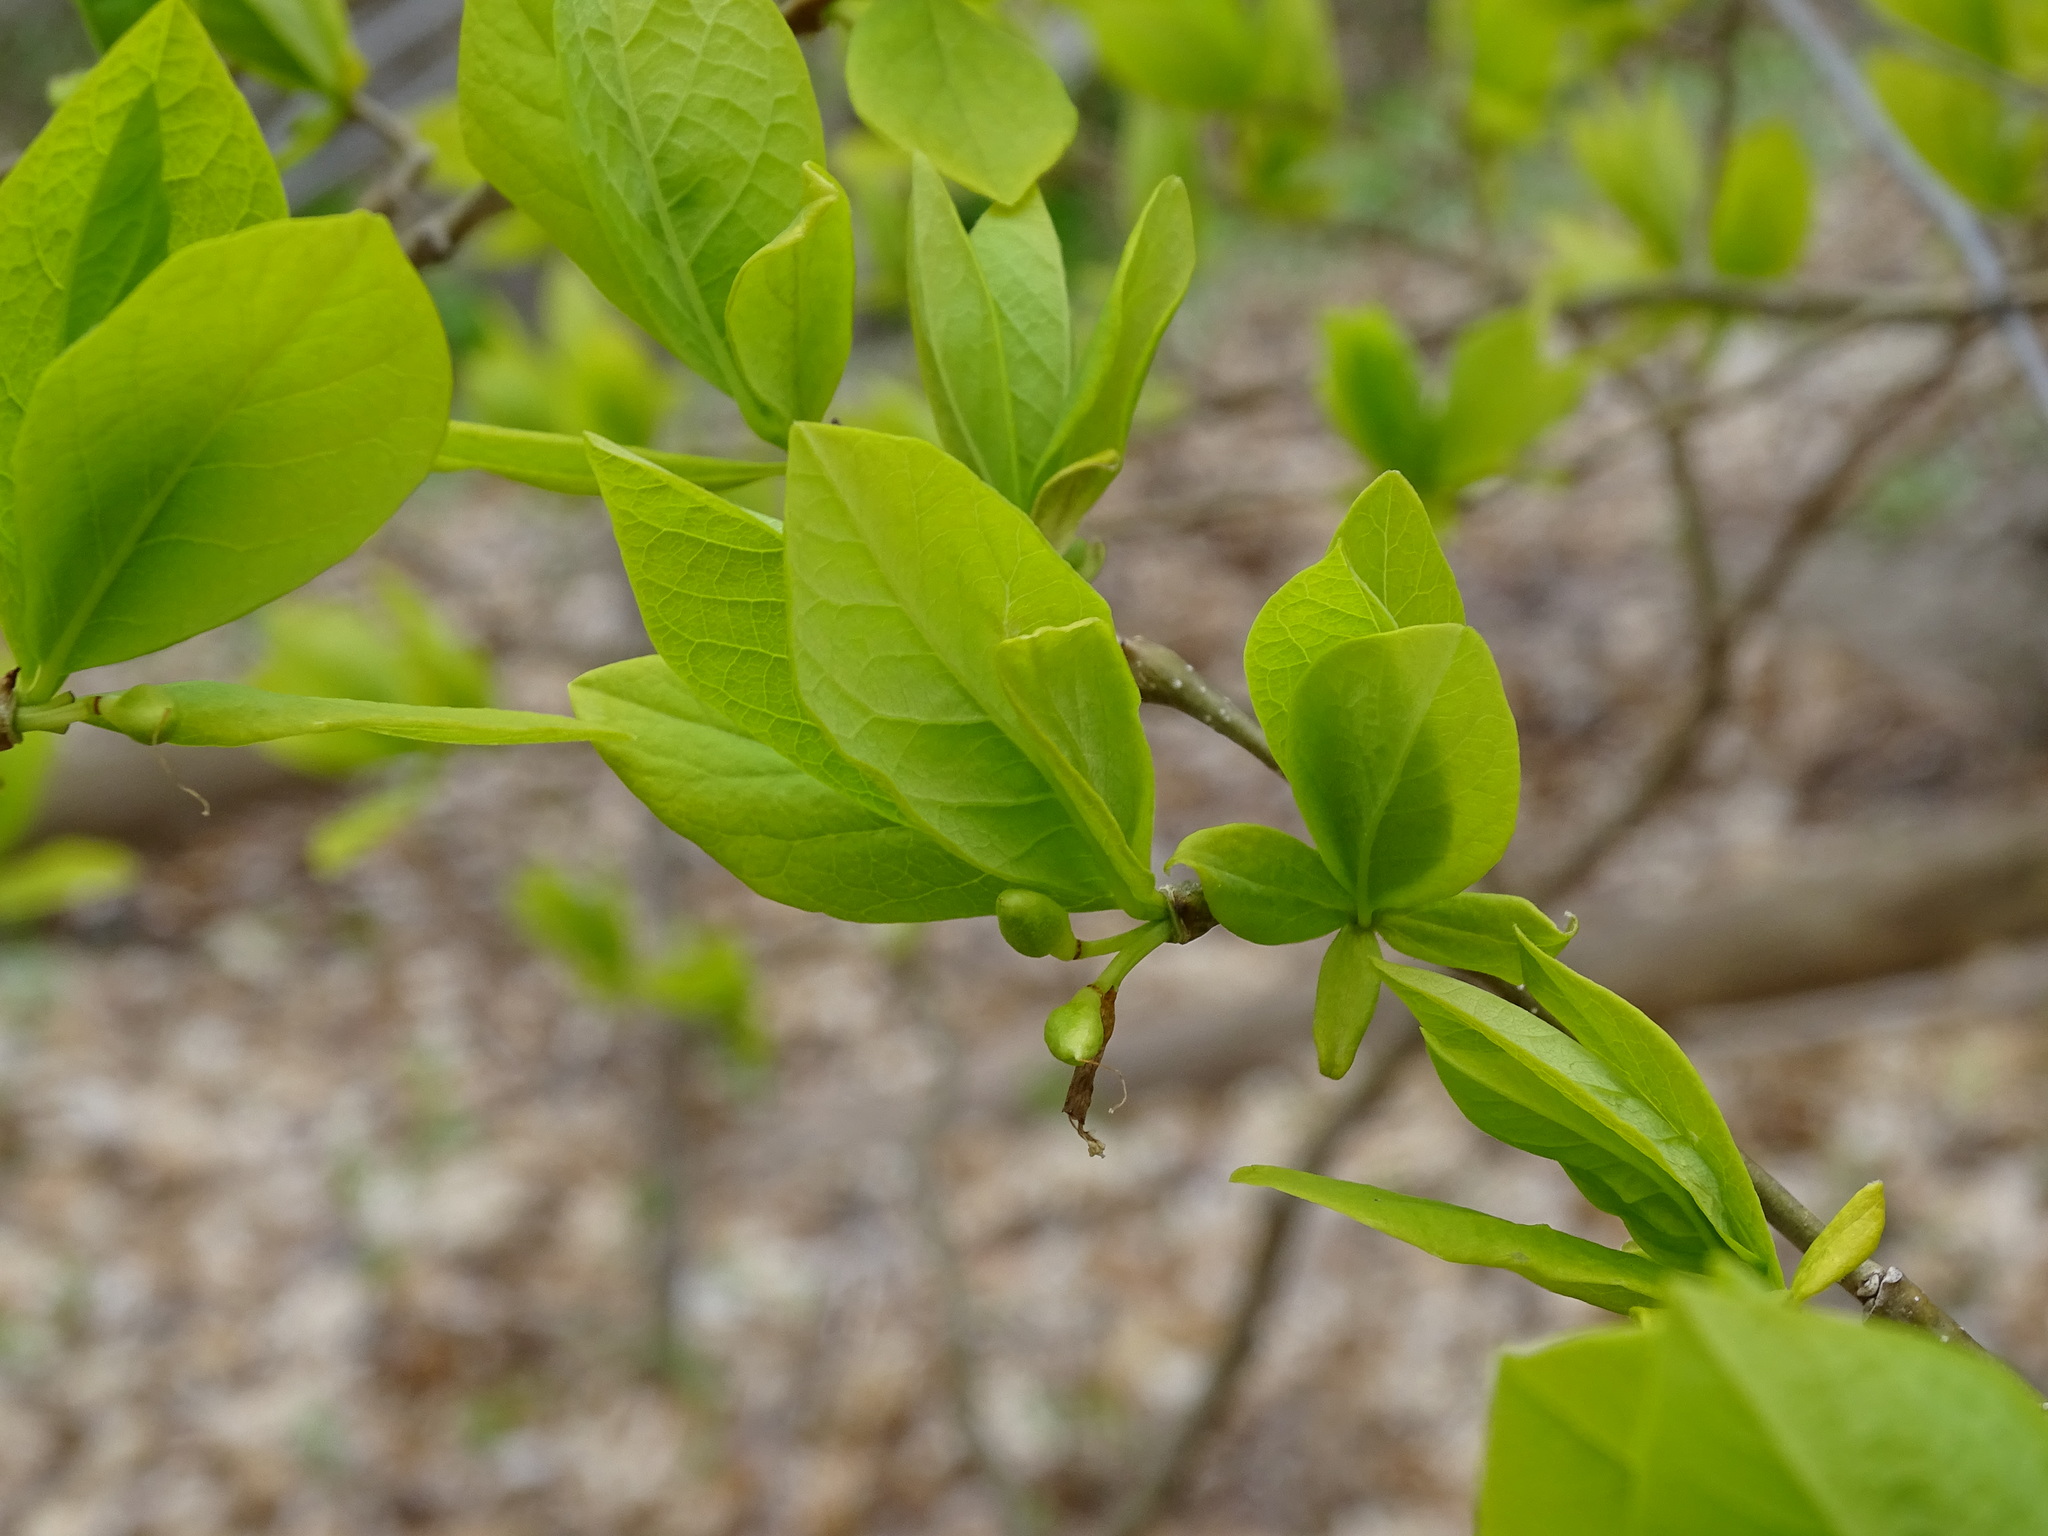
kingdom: Plantae
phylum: Tracheophyta
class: Magnoliopsida
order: Malvales
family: Thymelaeaceae
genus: Dirca
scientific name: Dirca palustris
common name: Leatherwood
